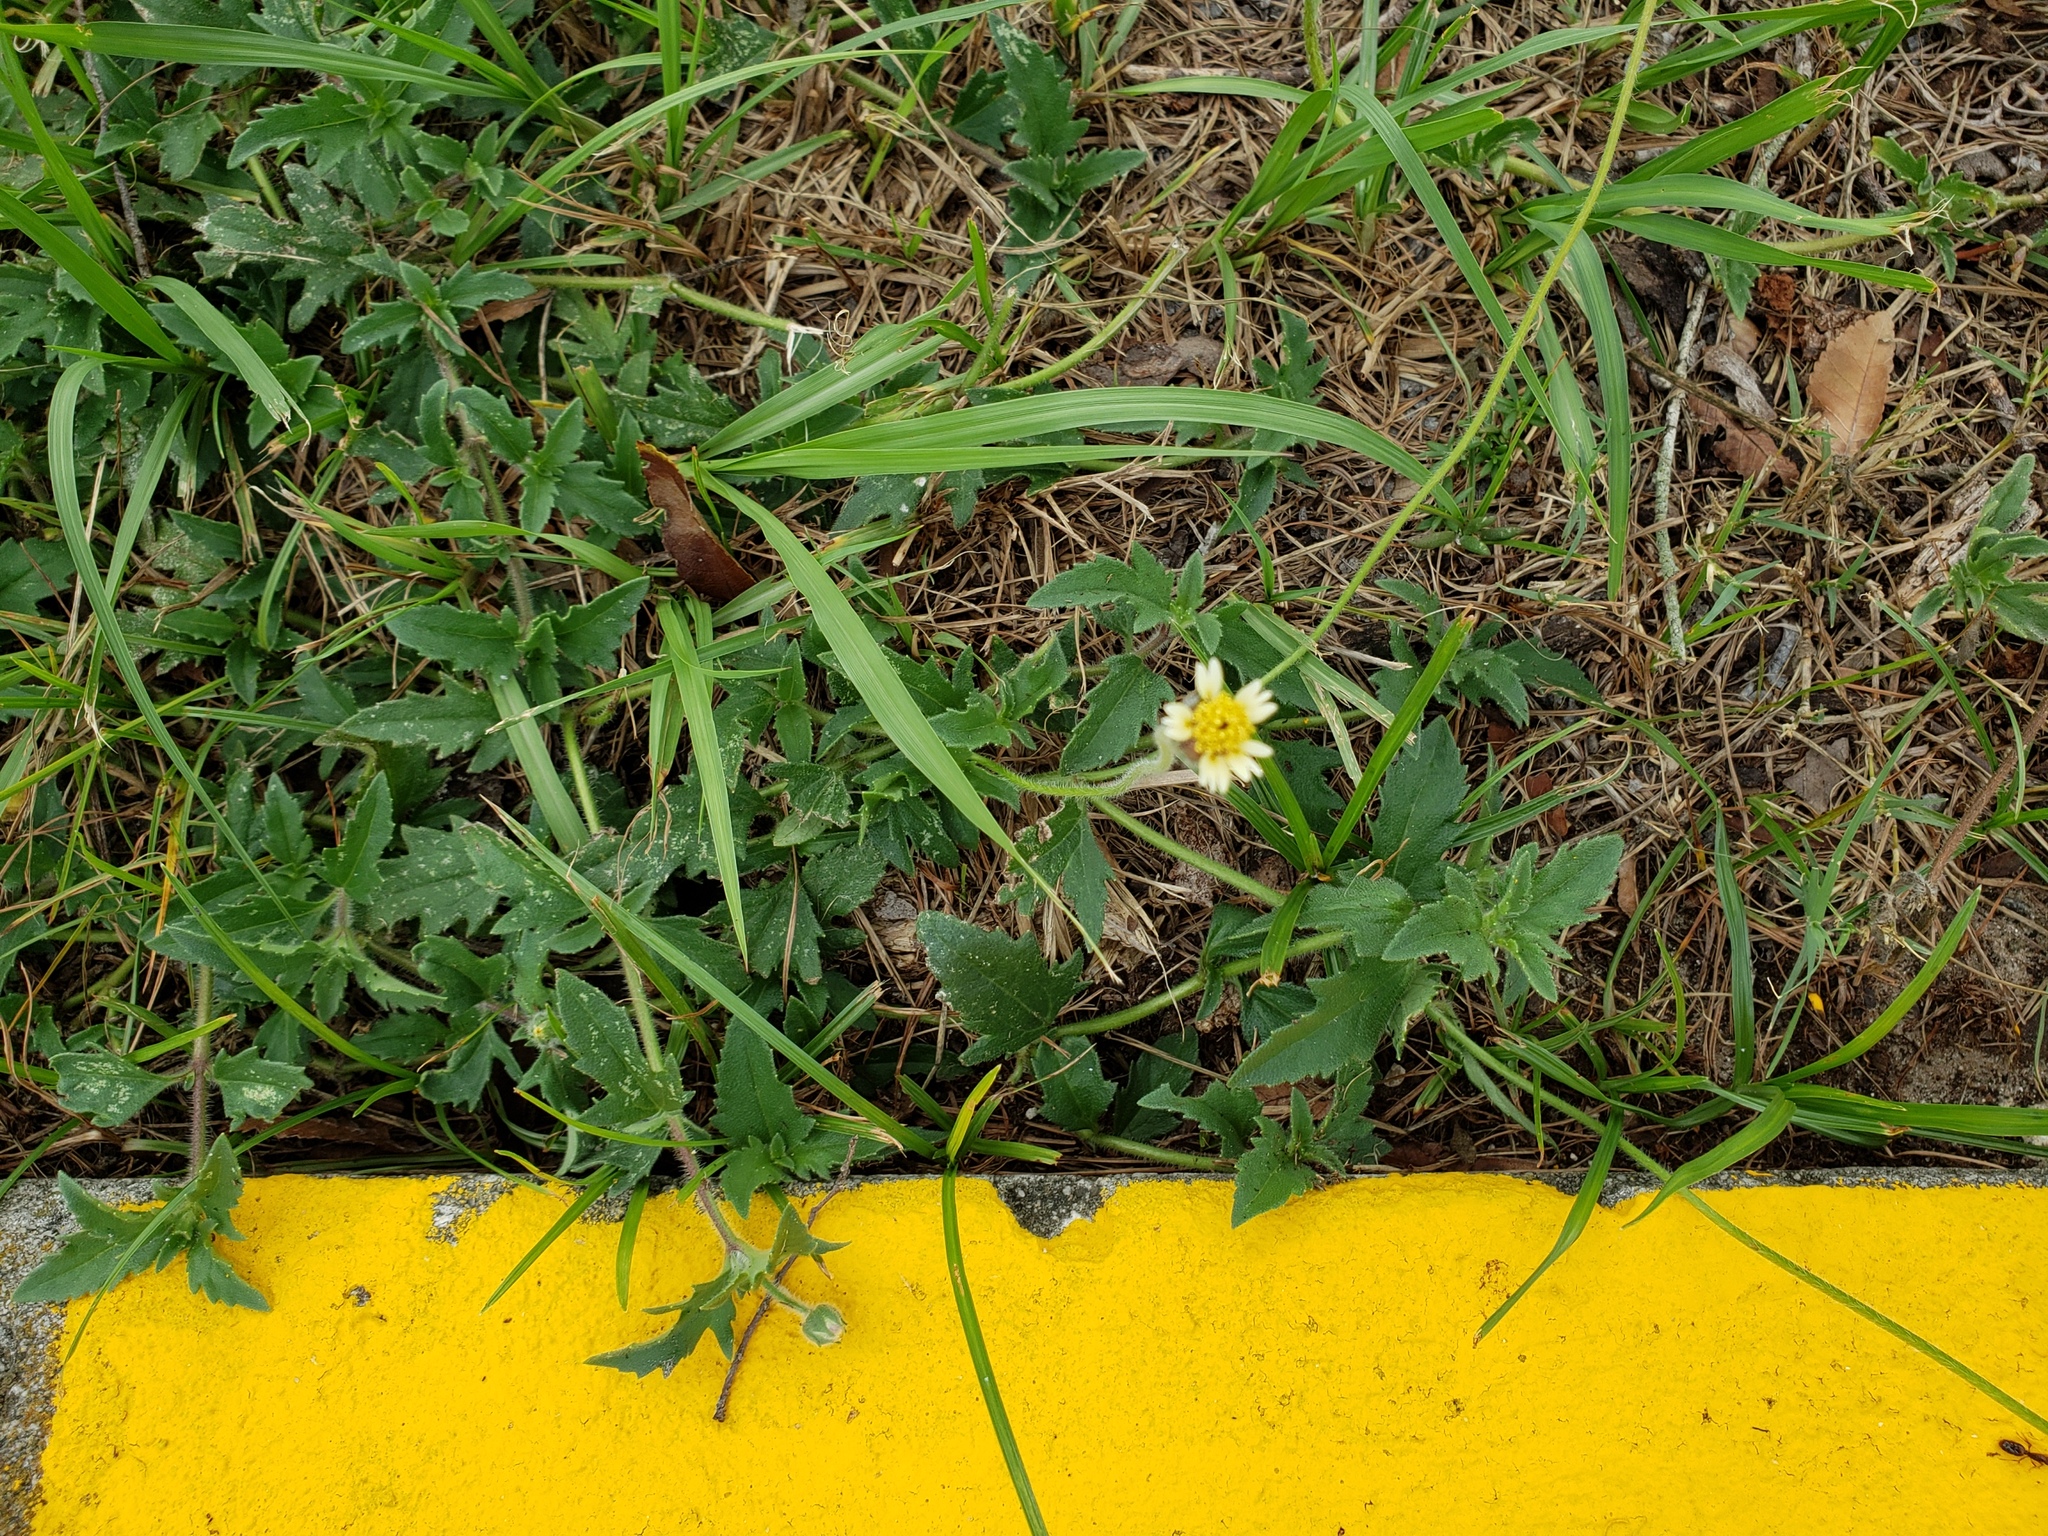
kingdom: Plantae
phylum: Tracheophyta
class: Magnoliopsida
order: Asterales
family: Asteraceae
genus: Tridax
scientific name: Tridax procumbens
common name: Coatbuttons
